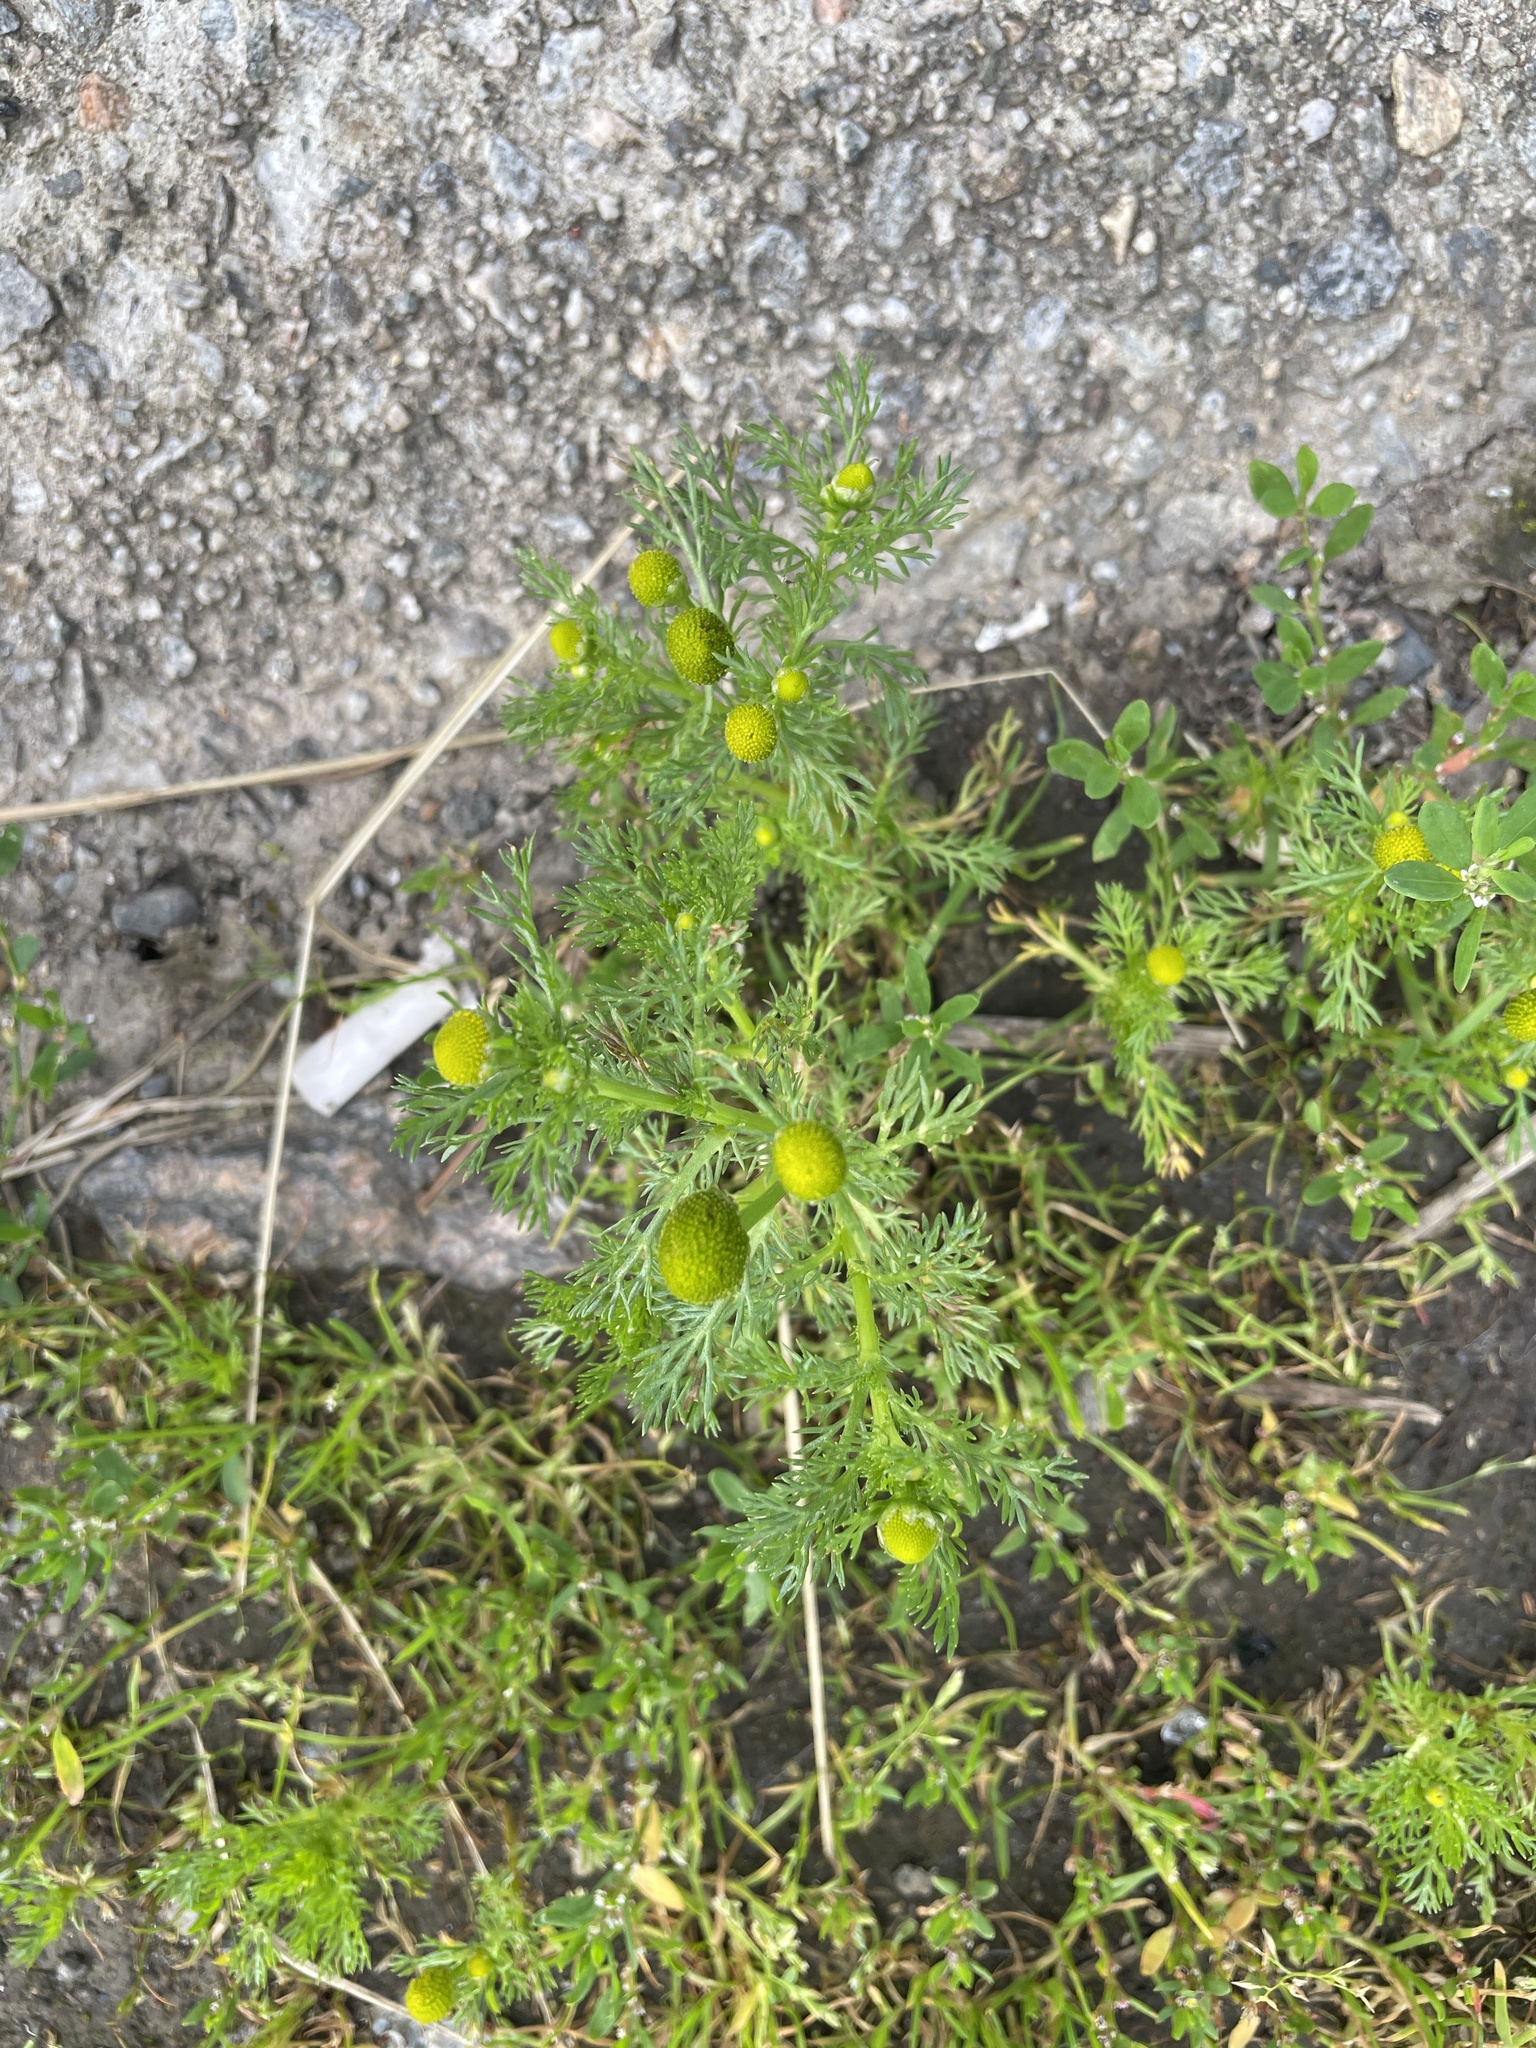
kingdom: Plantae
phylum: Tracheophyta
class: Magnoliopsida
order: Asterales
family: Asteraceae
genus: Matricaria
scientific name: Matricaria discoidea
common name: Disc mayweed
